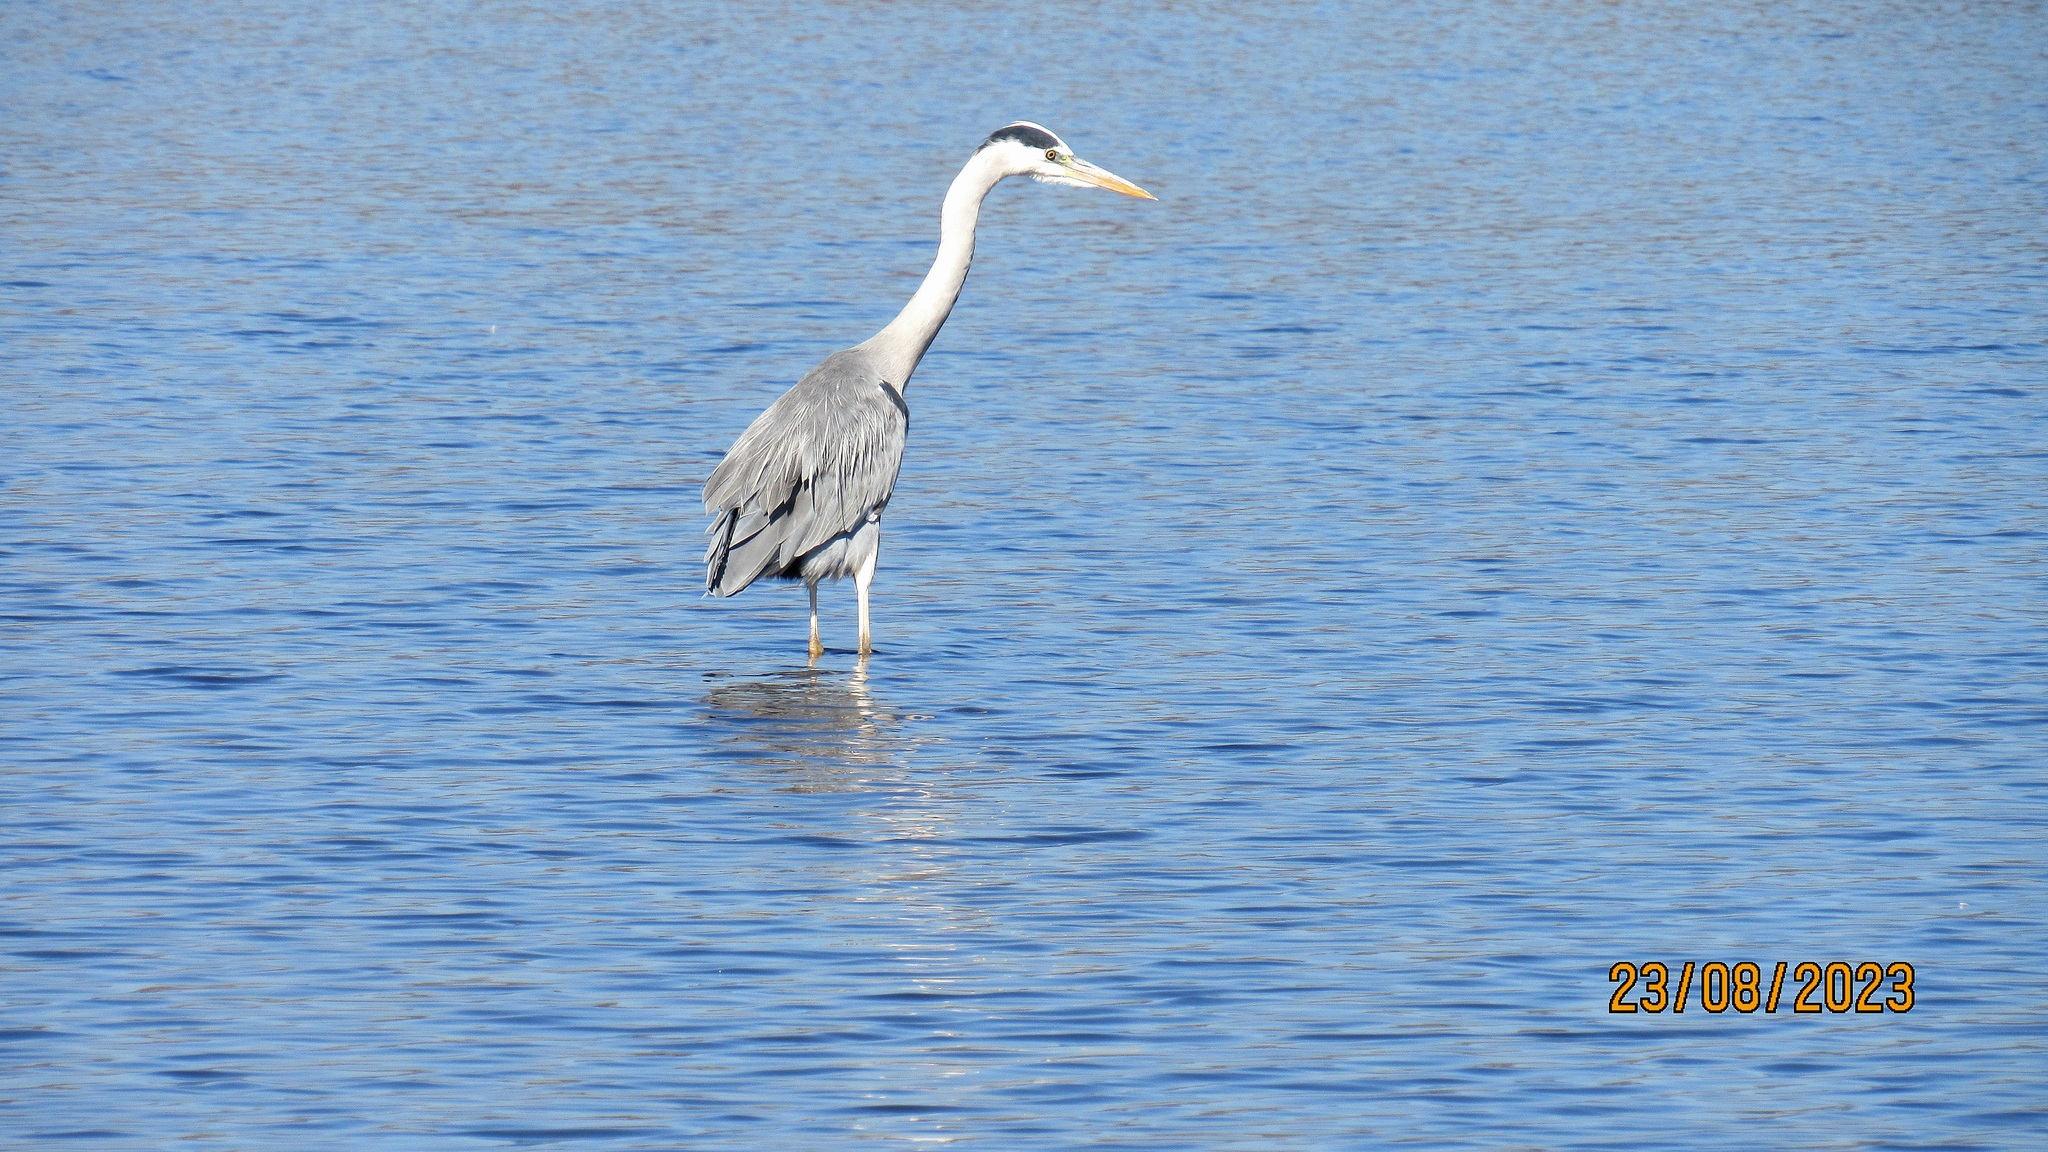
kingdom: Animalia
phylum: Chordata
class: Aves
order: Pelecaniformes
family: Ardeidae
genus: Ardea
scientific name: Ardea cinerea
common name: Grey heron
